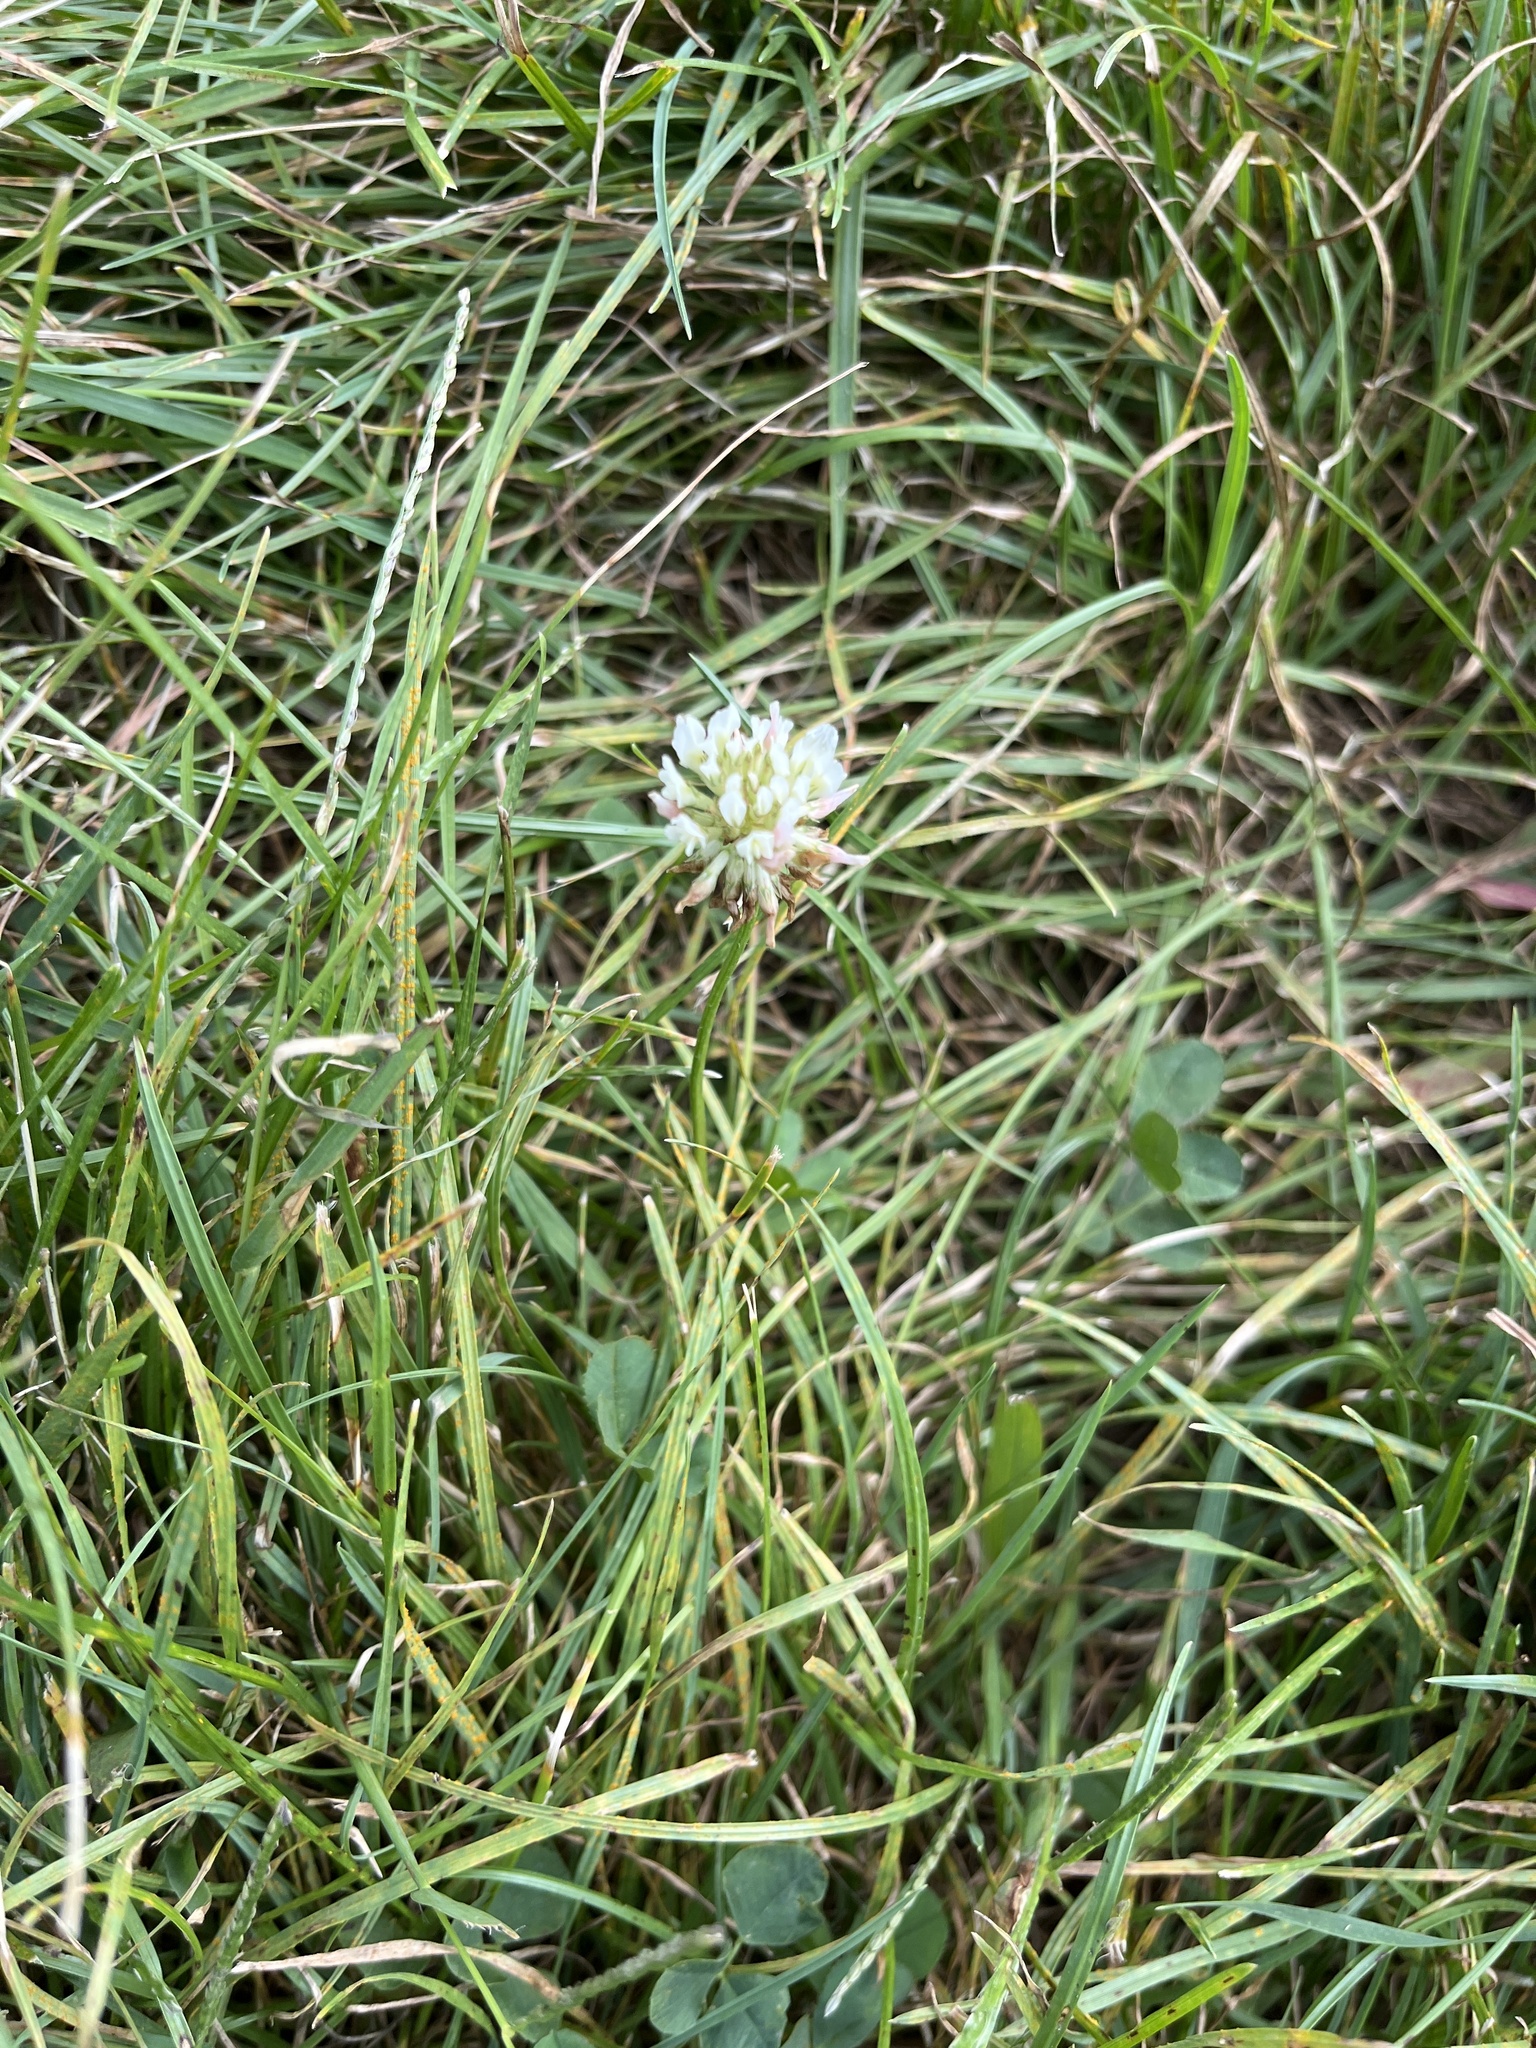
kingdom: Plantae
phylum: Tracheophyta
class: Magnoliopsida
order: Fabales
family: Fabaceae
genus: Trifolium
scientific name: Trifolium repens
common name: White clover
